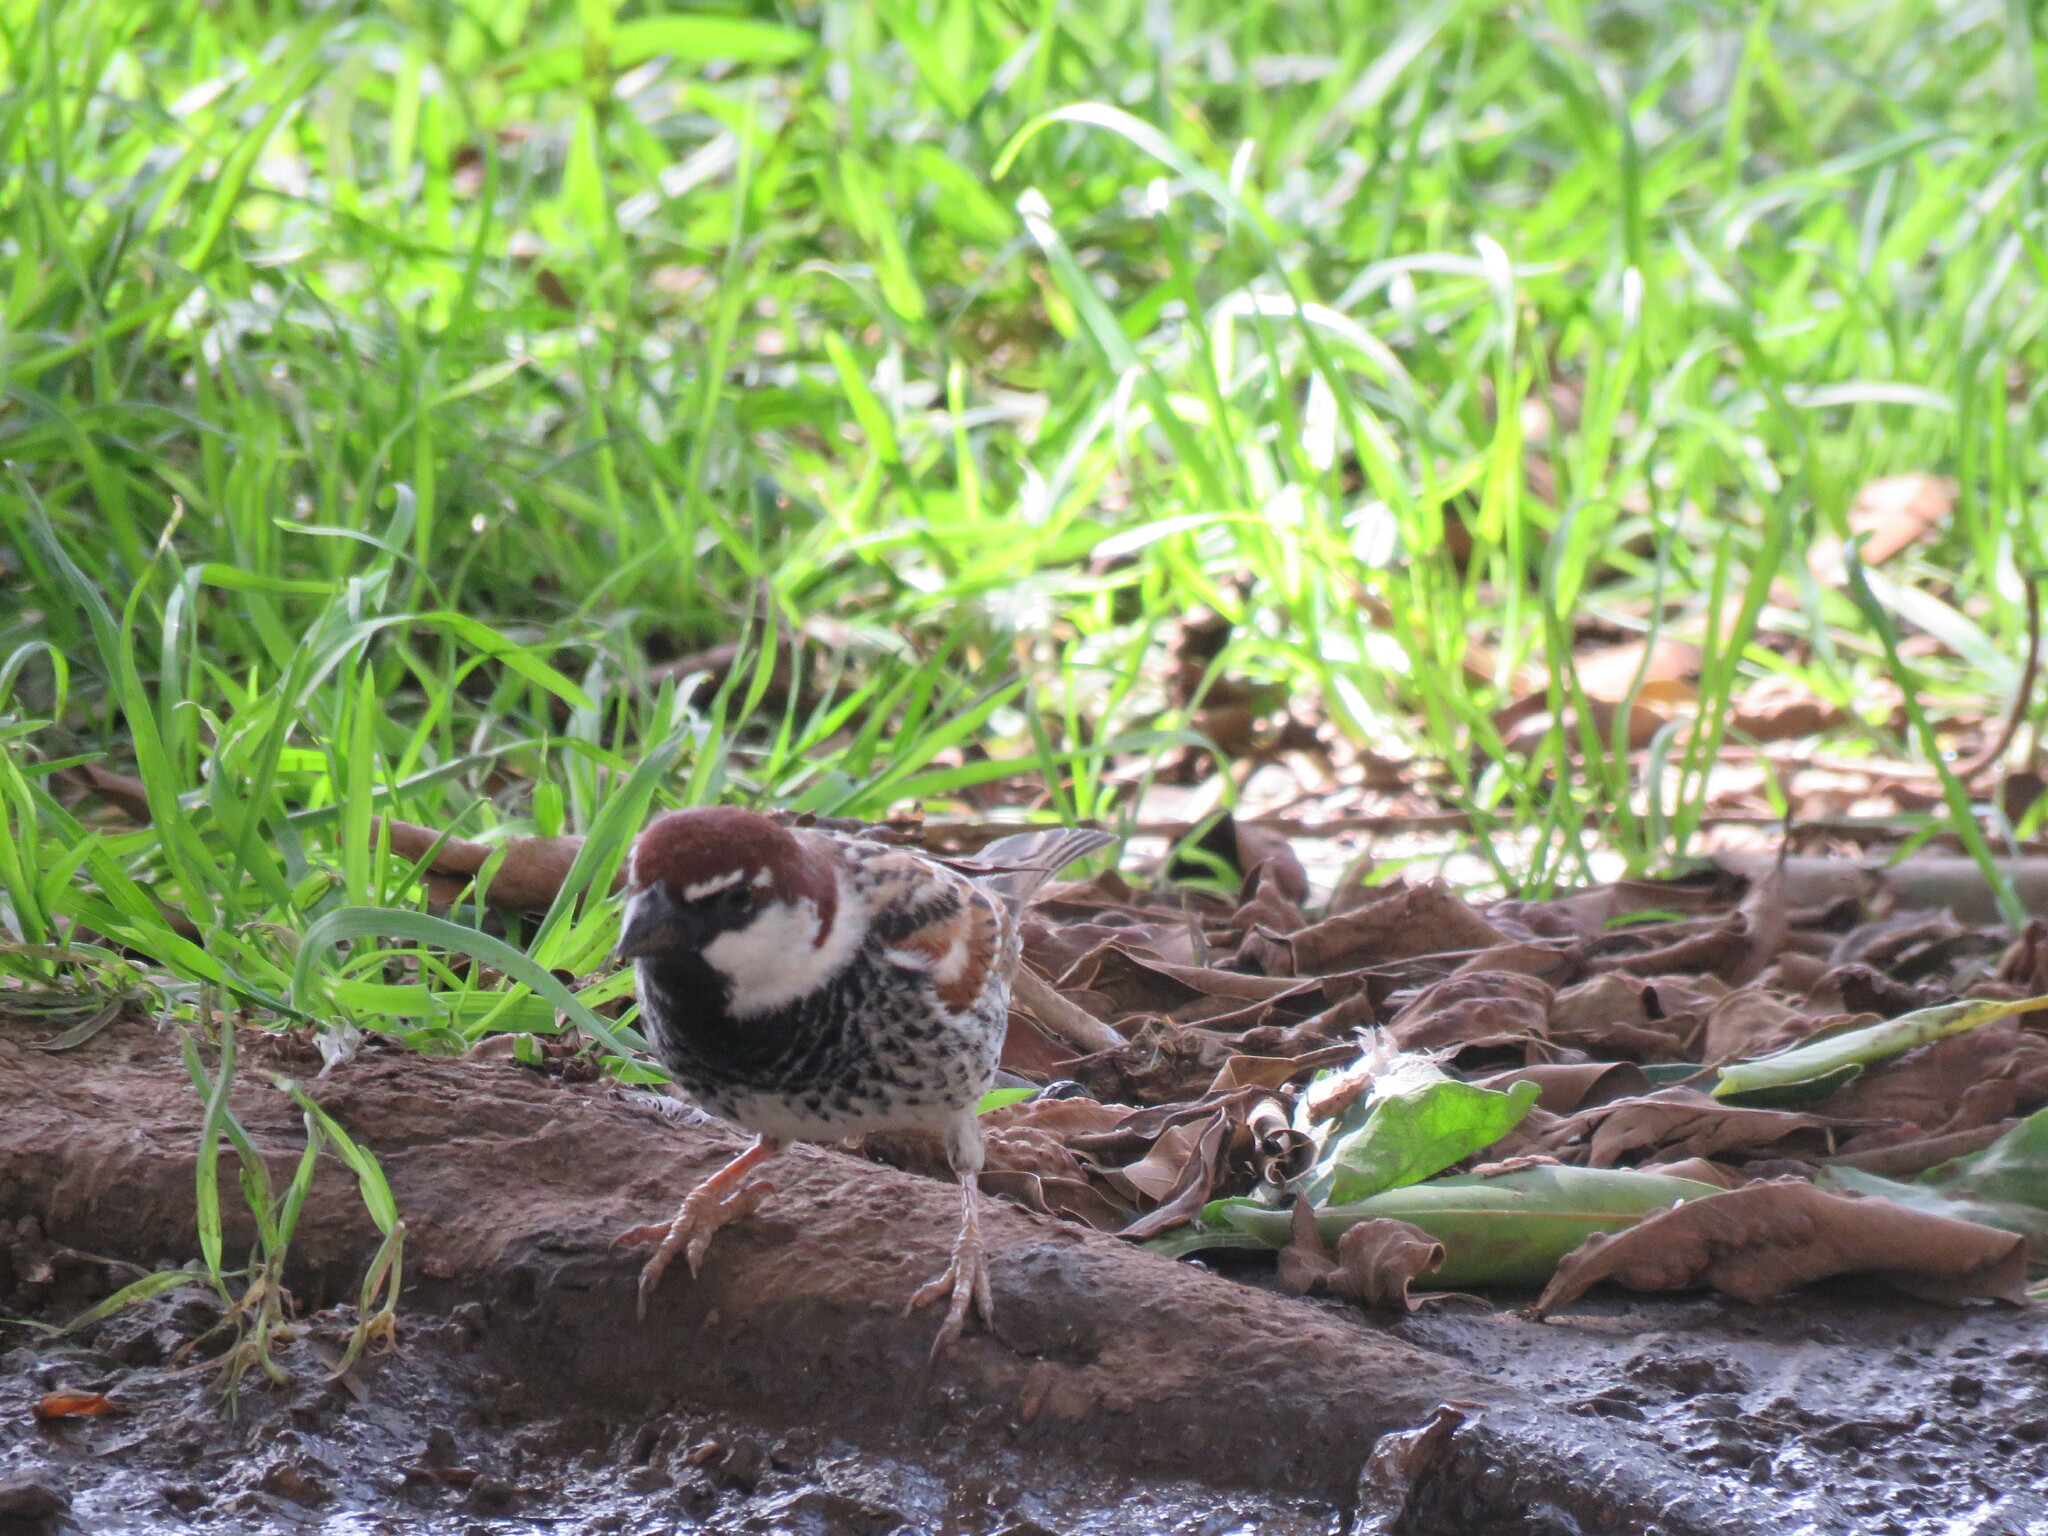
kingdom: Animalia
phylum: Chordata
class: Aves
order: Passeriformes
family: Passeridae
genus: Passer
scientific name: Passer hispaniolensis
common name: Spanish sparrow
